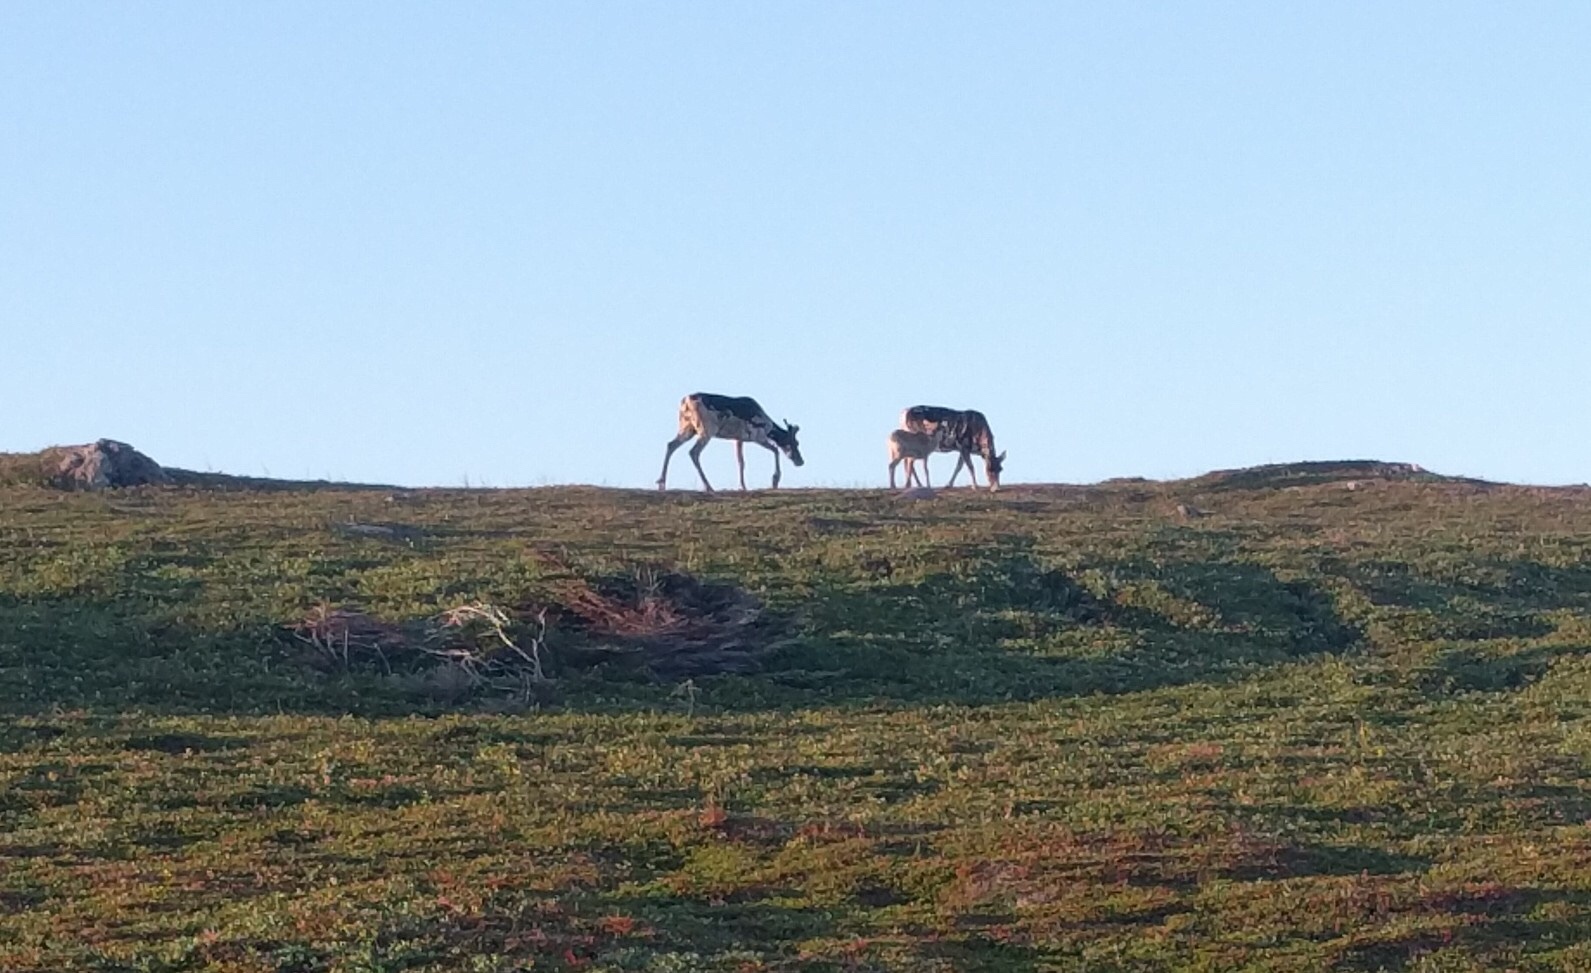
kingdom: Animalia
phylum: Chordata
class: Mammalia
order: Artiodactyla
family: Cervidae
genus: Rangifer
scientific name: Rangifer tarandus
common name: Reindeer
